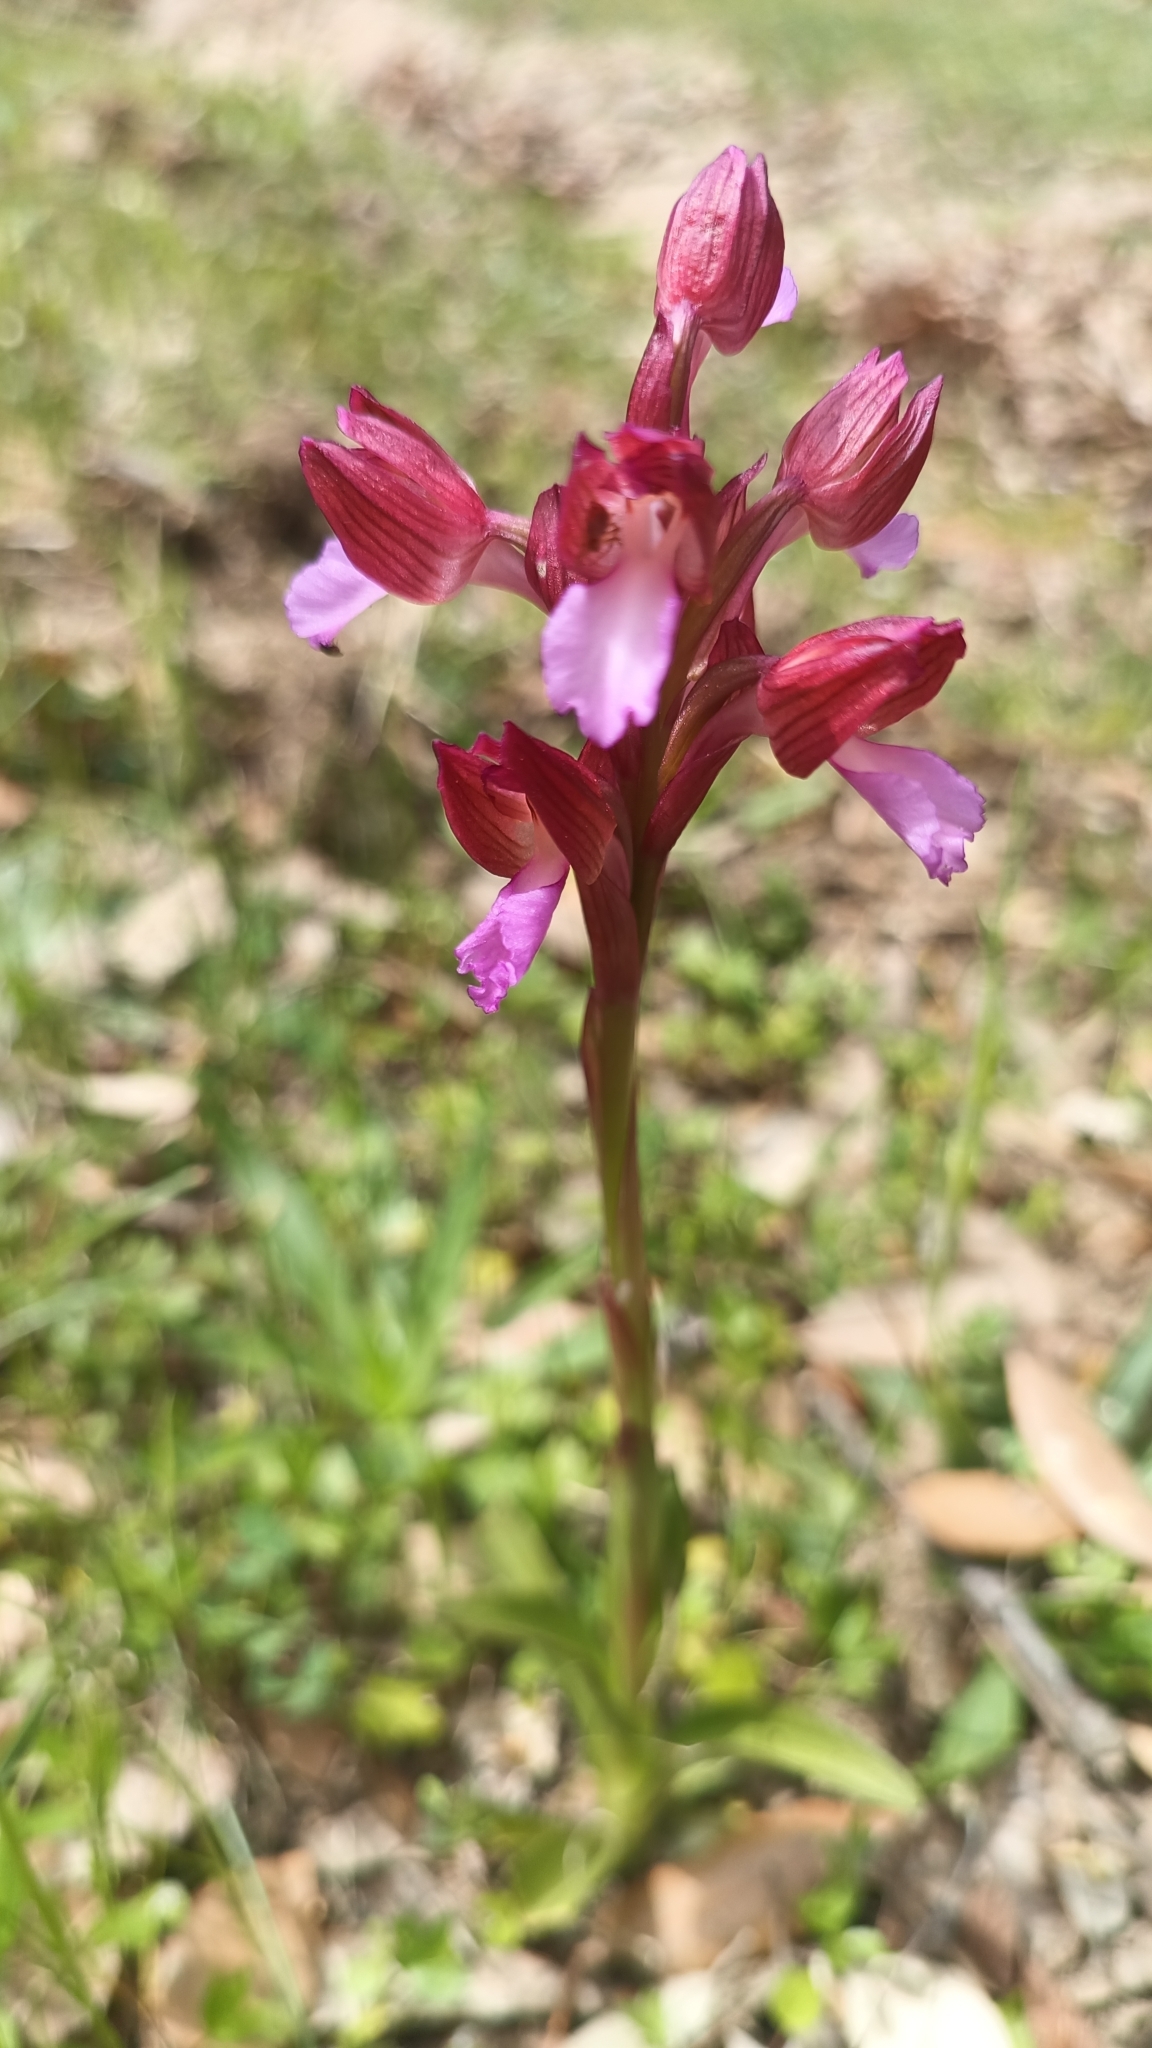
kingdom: Plantae
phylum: Tracheophyta
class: Liliopsida
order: Asparagales
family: Orchidaceae
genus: Anacamptis
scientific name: Anacamptis papilionacea
